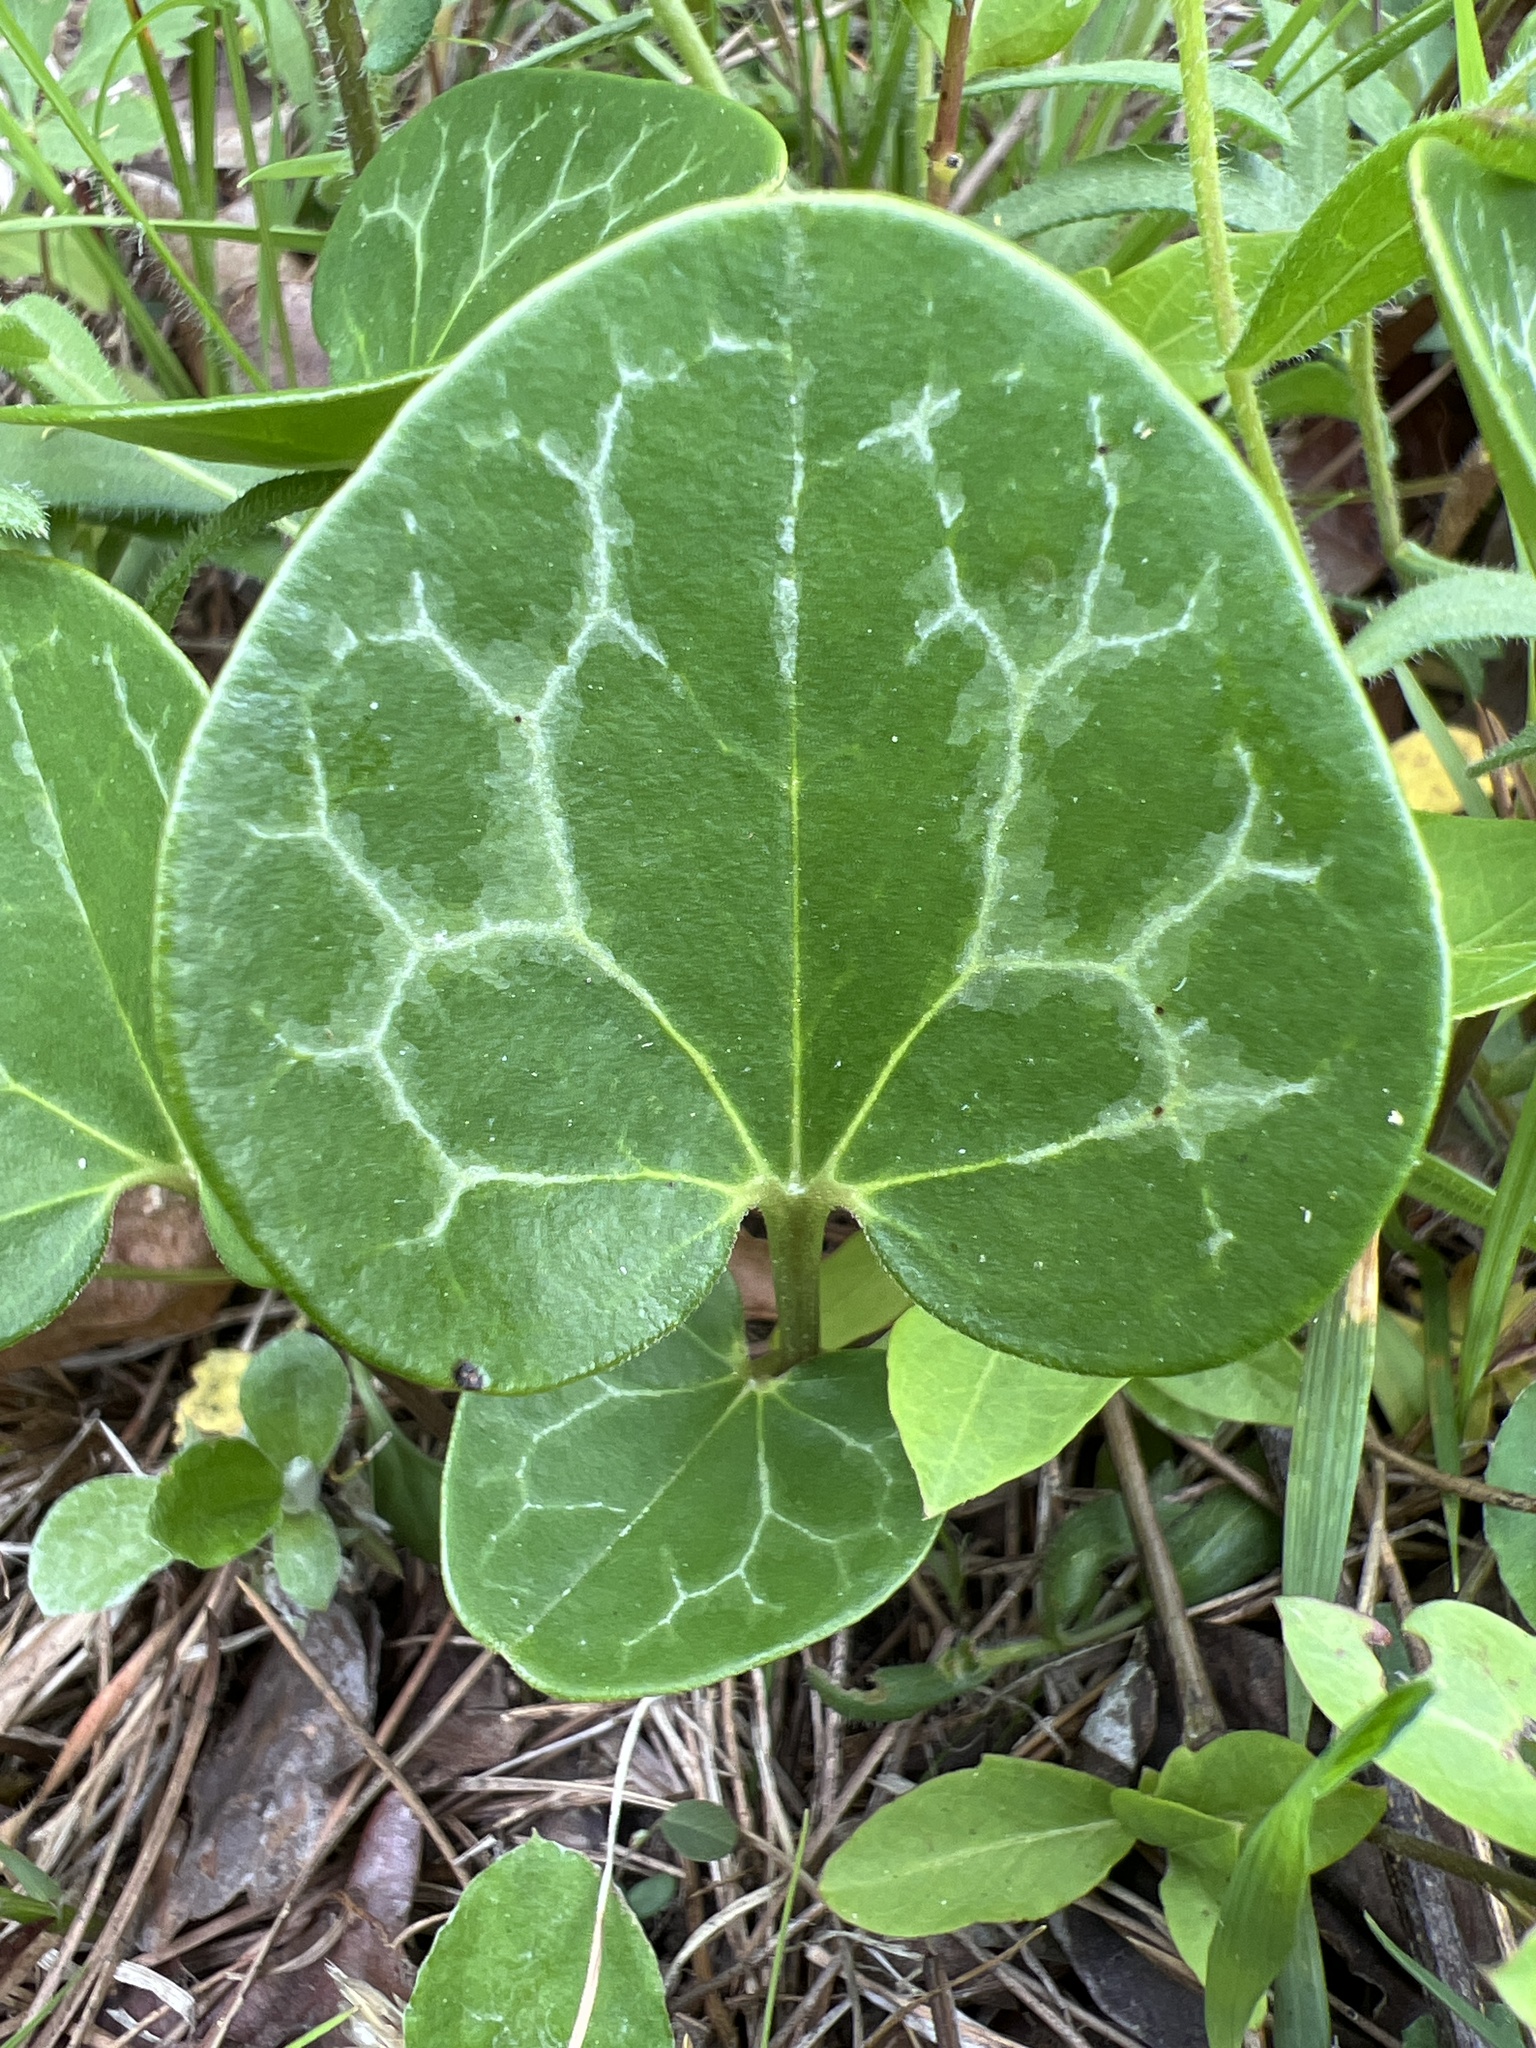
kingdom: Plantae
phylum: Tracheophyta
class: Magnoliopsida
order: Piperales
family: Aristolochiaceae
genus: Hexastylis
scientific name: Hexastylis lewisii
